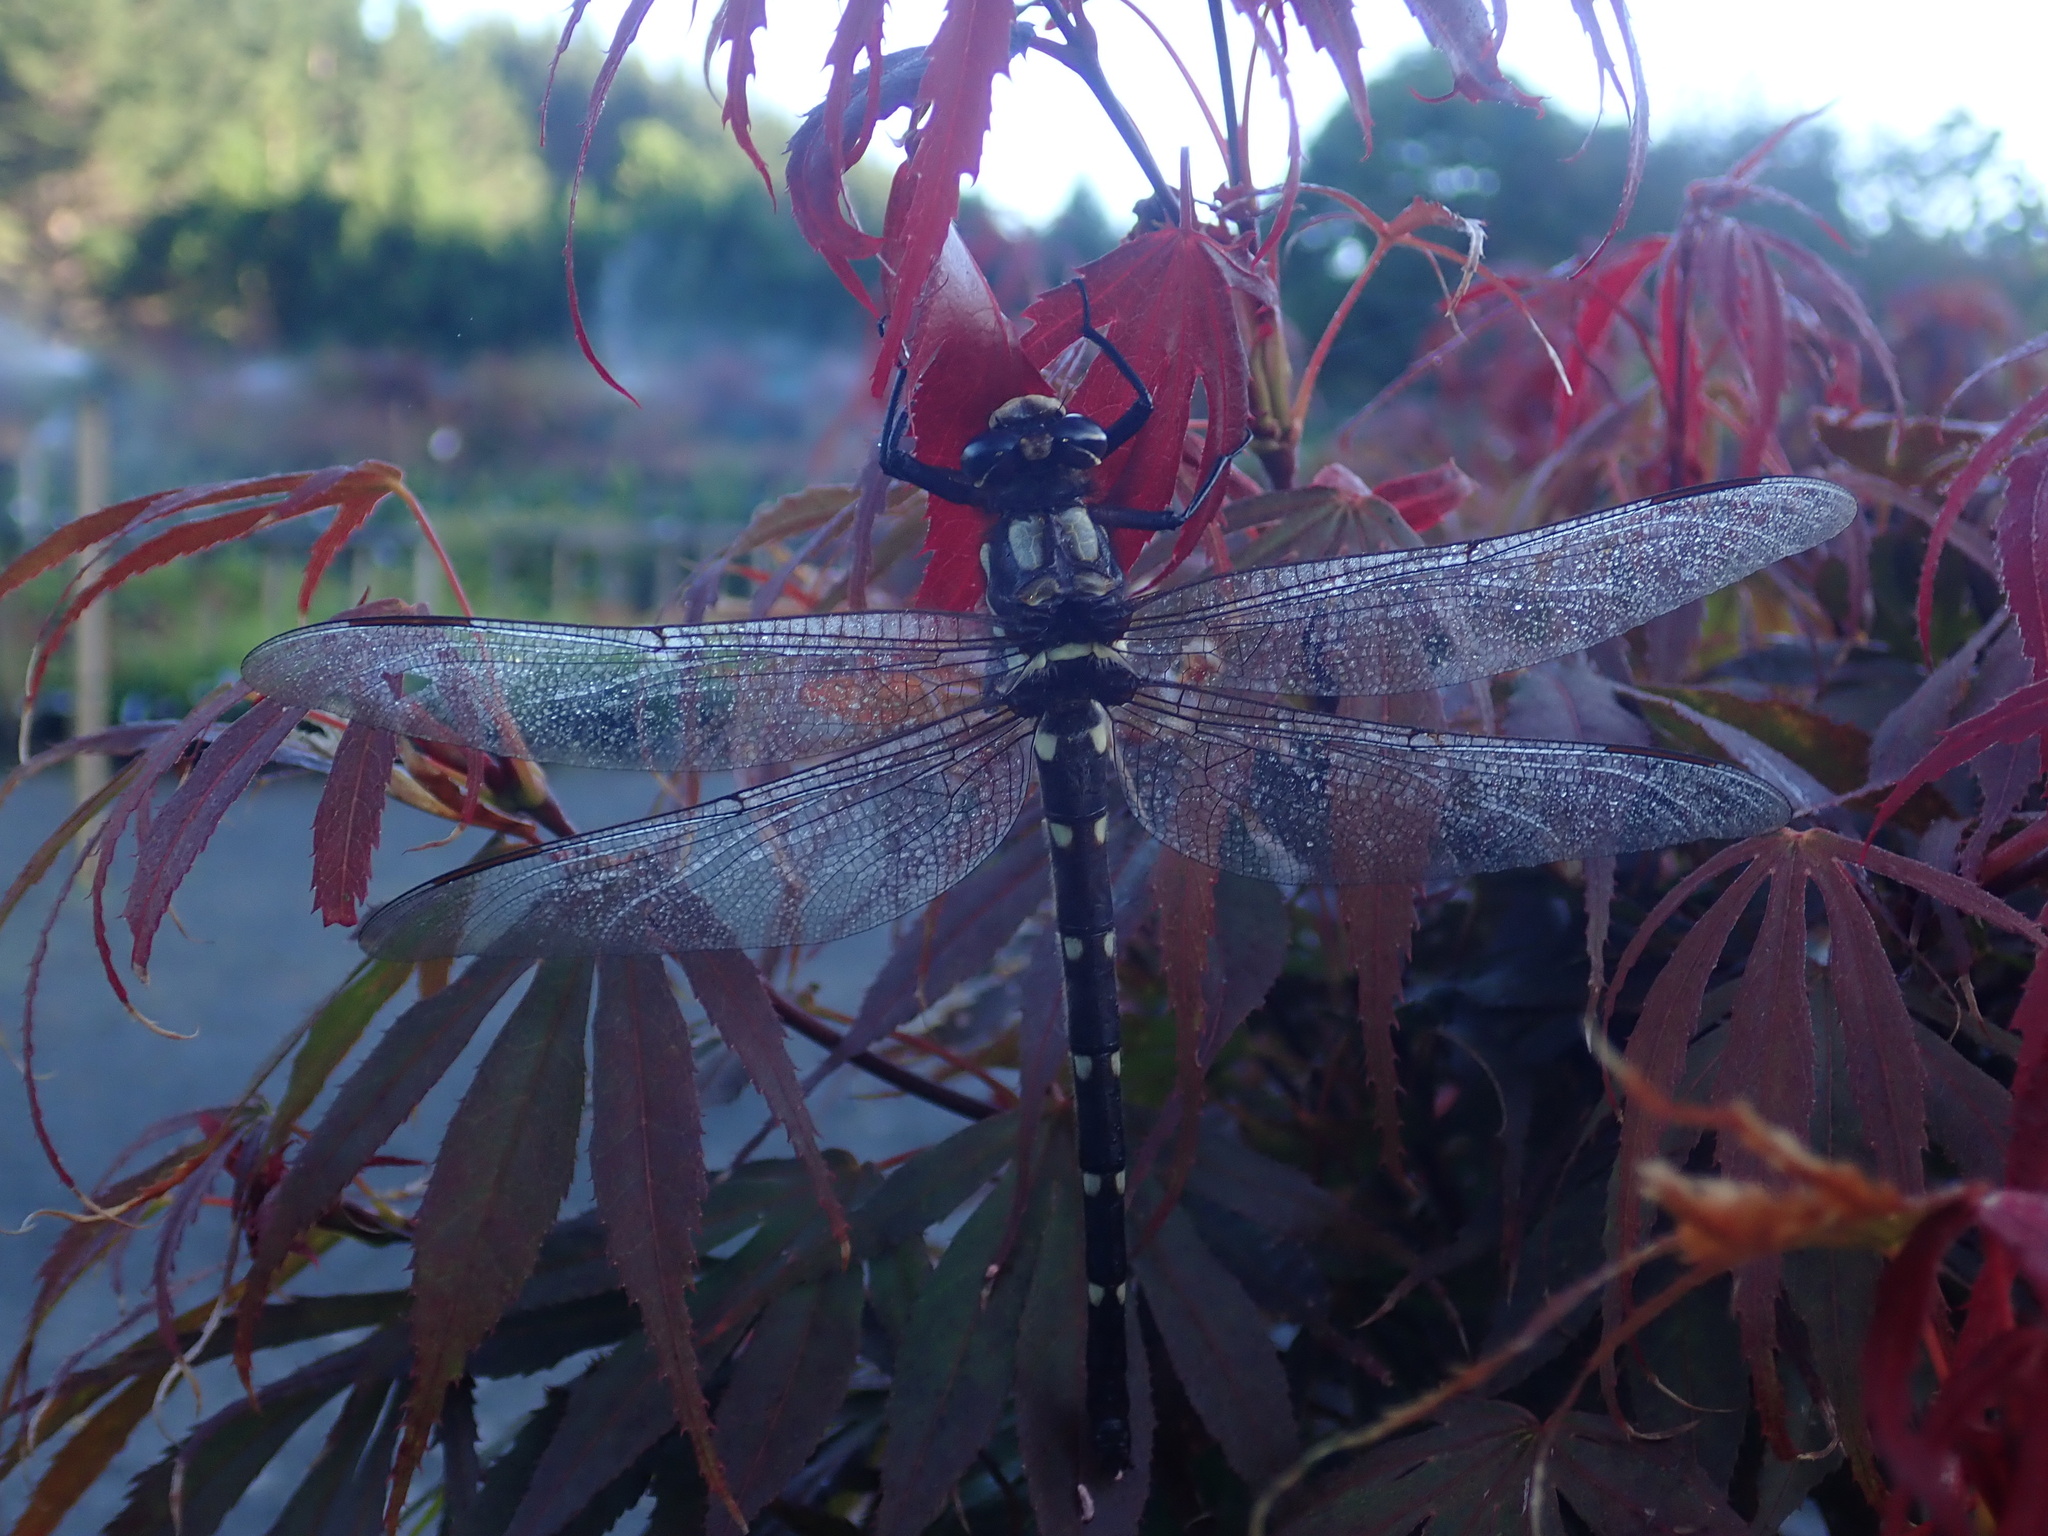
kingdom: Animalia
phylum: Arthropoda
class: Insecta
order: Odonata
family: Petaluridae
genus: Uropetala
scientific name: Uropetala carovei
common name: Bush giant dragonfly
